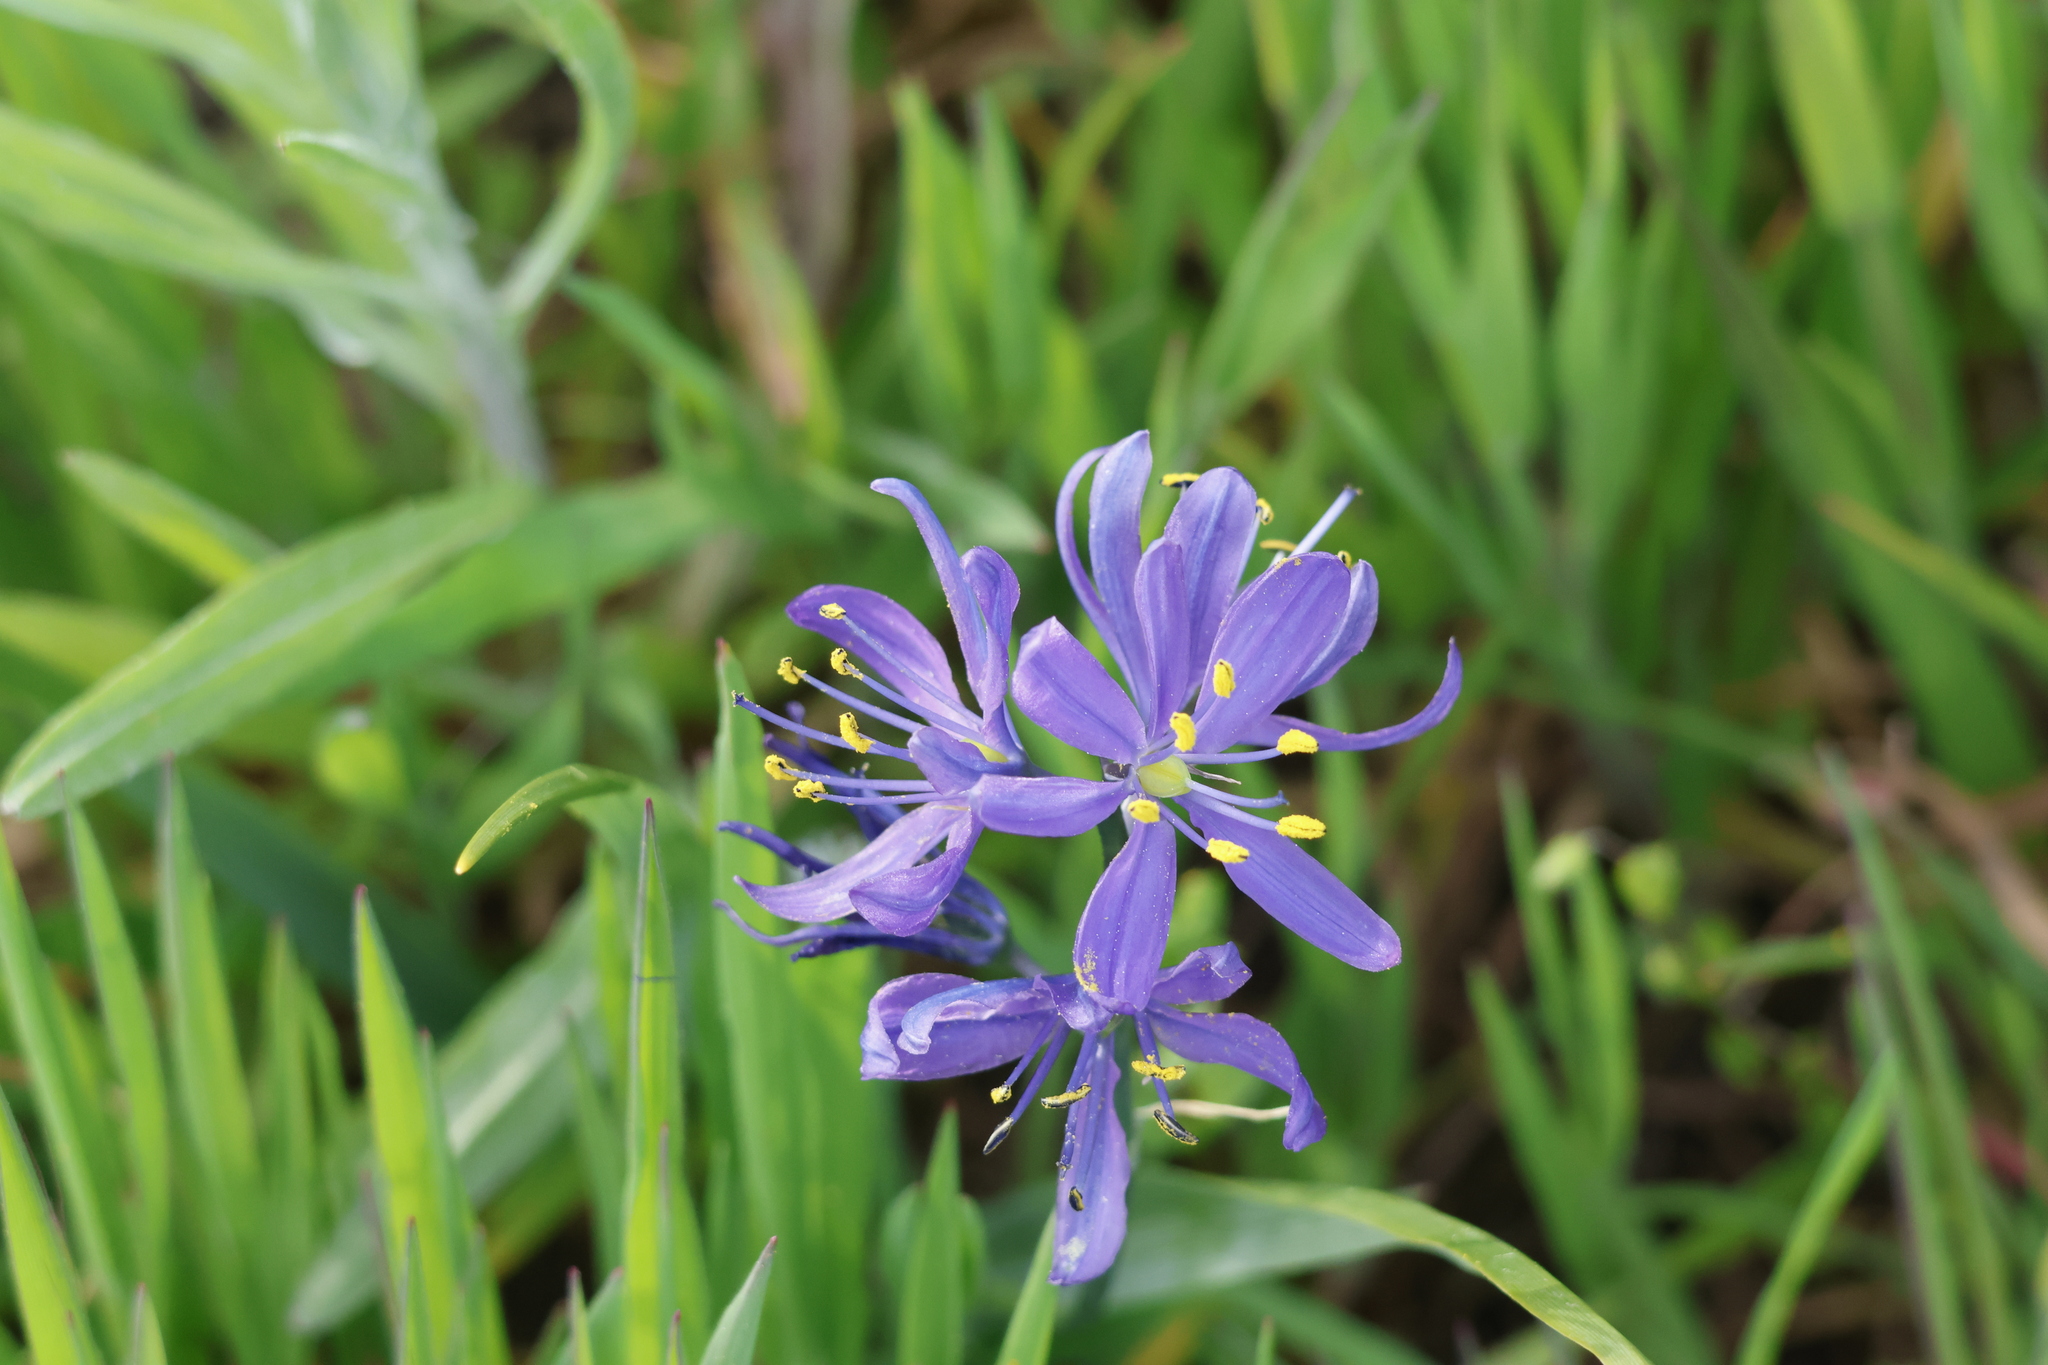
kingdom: Plantae
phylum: Tracheophyta
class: Liliopsida
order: Asparagales
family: Asparagaceae
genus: Camassia
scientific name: Camassia quamash
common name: Common camas
